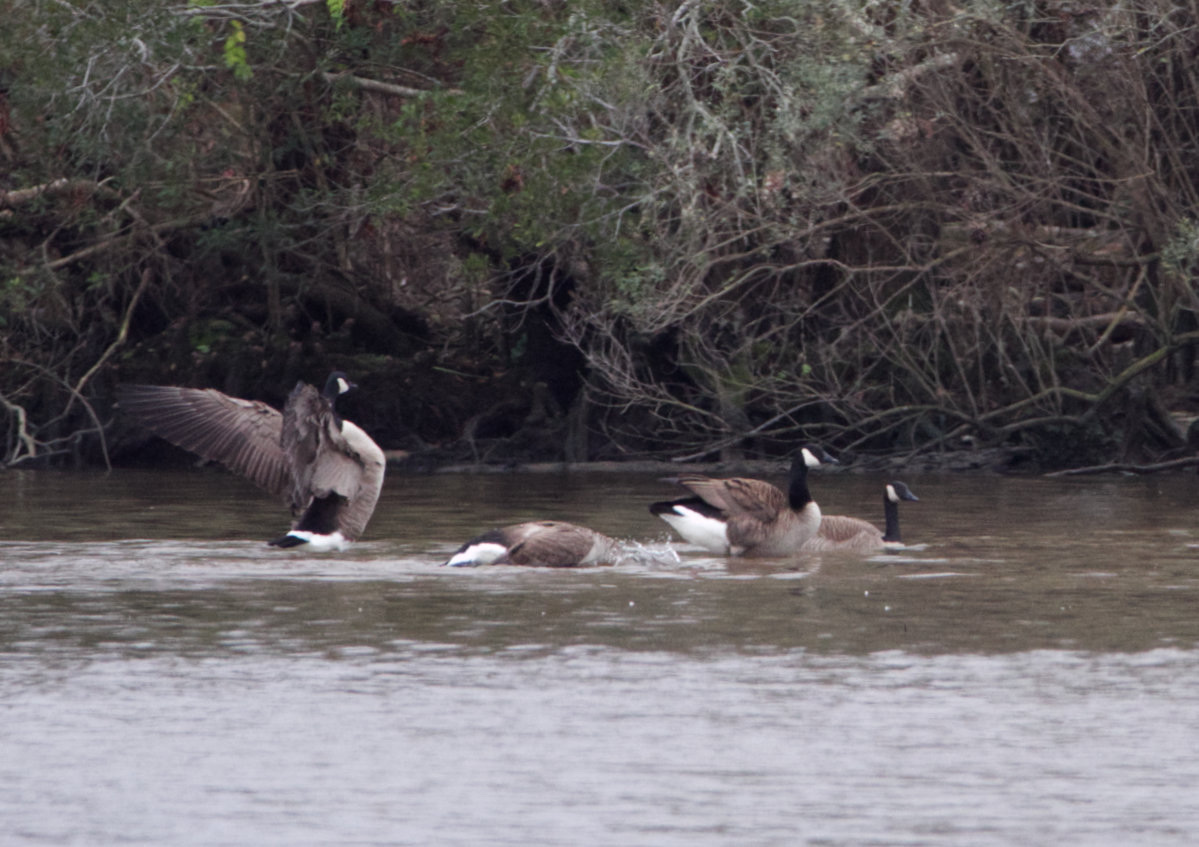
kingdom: Animalia
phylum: Chordata
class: Aves
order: Anseriformes
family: Anatidae
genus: Branta
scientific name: Branta canadensis
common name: Canada goose
